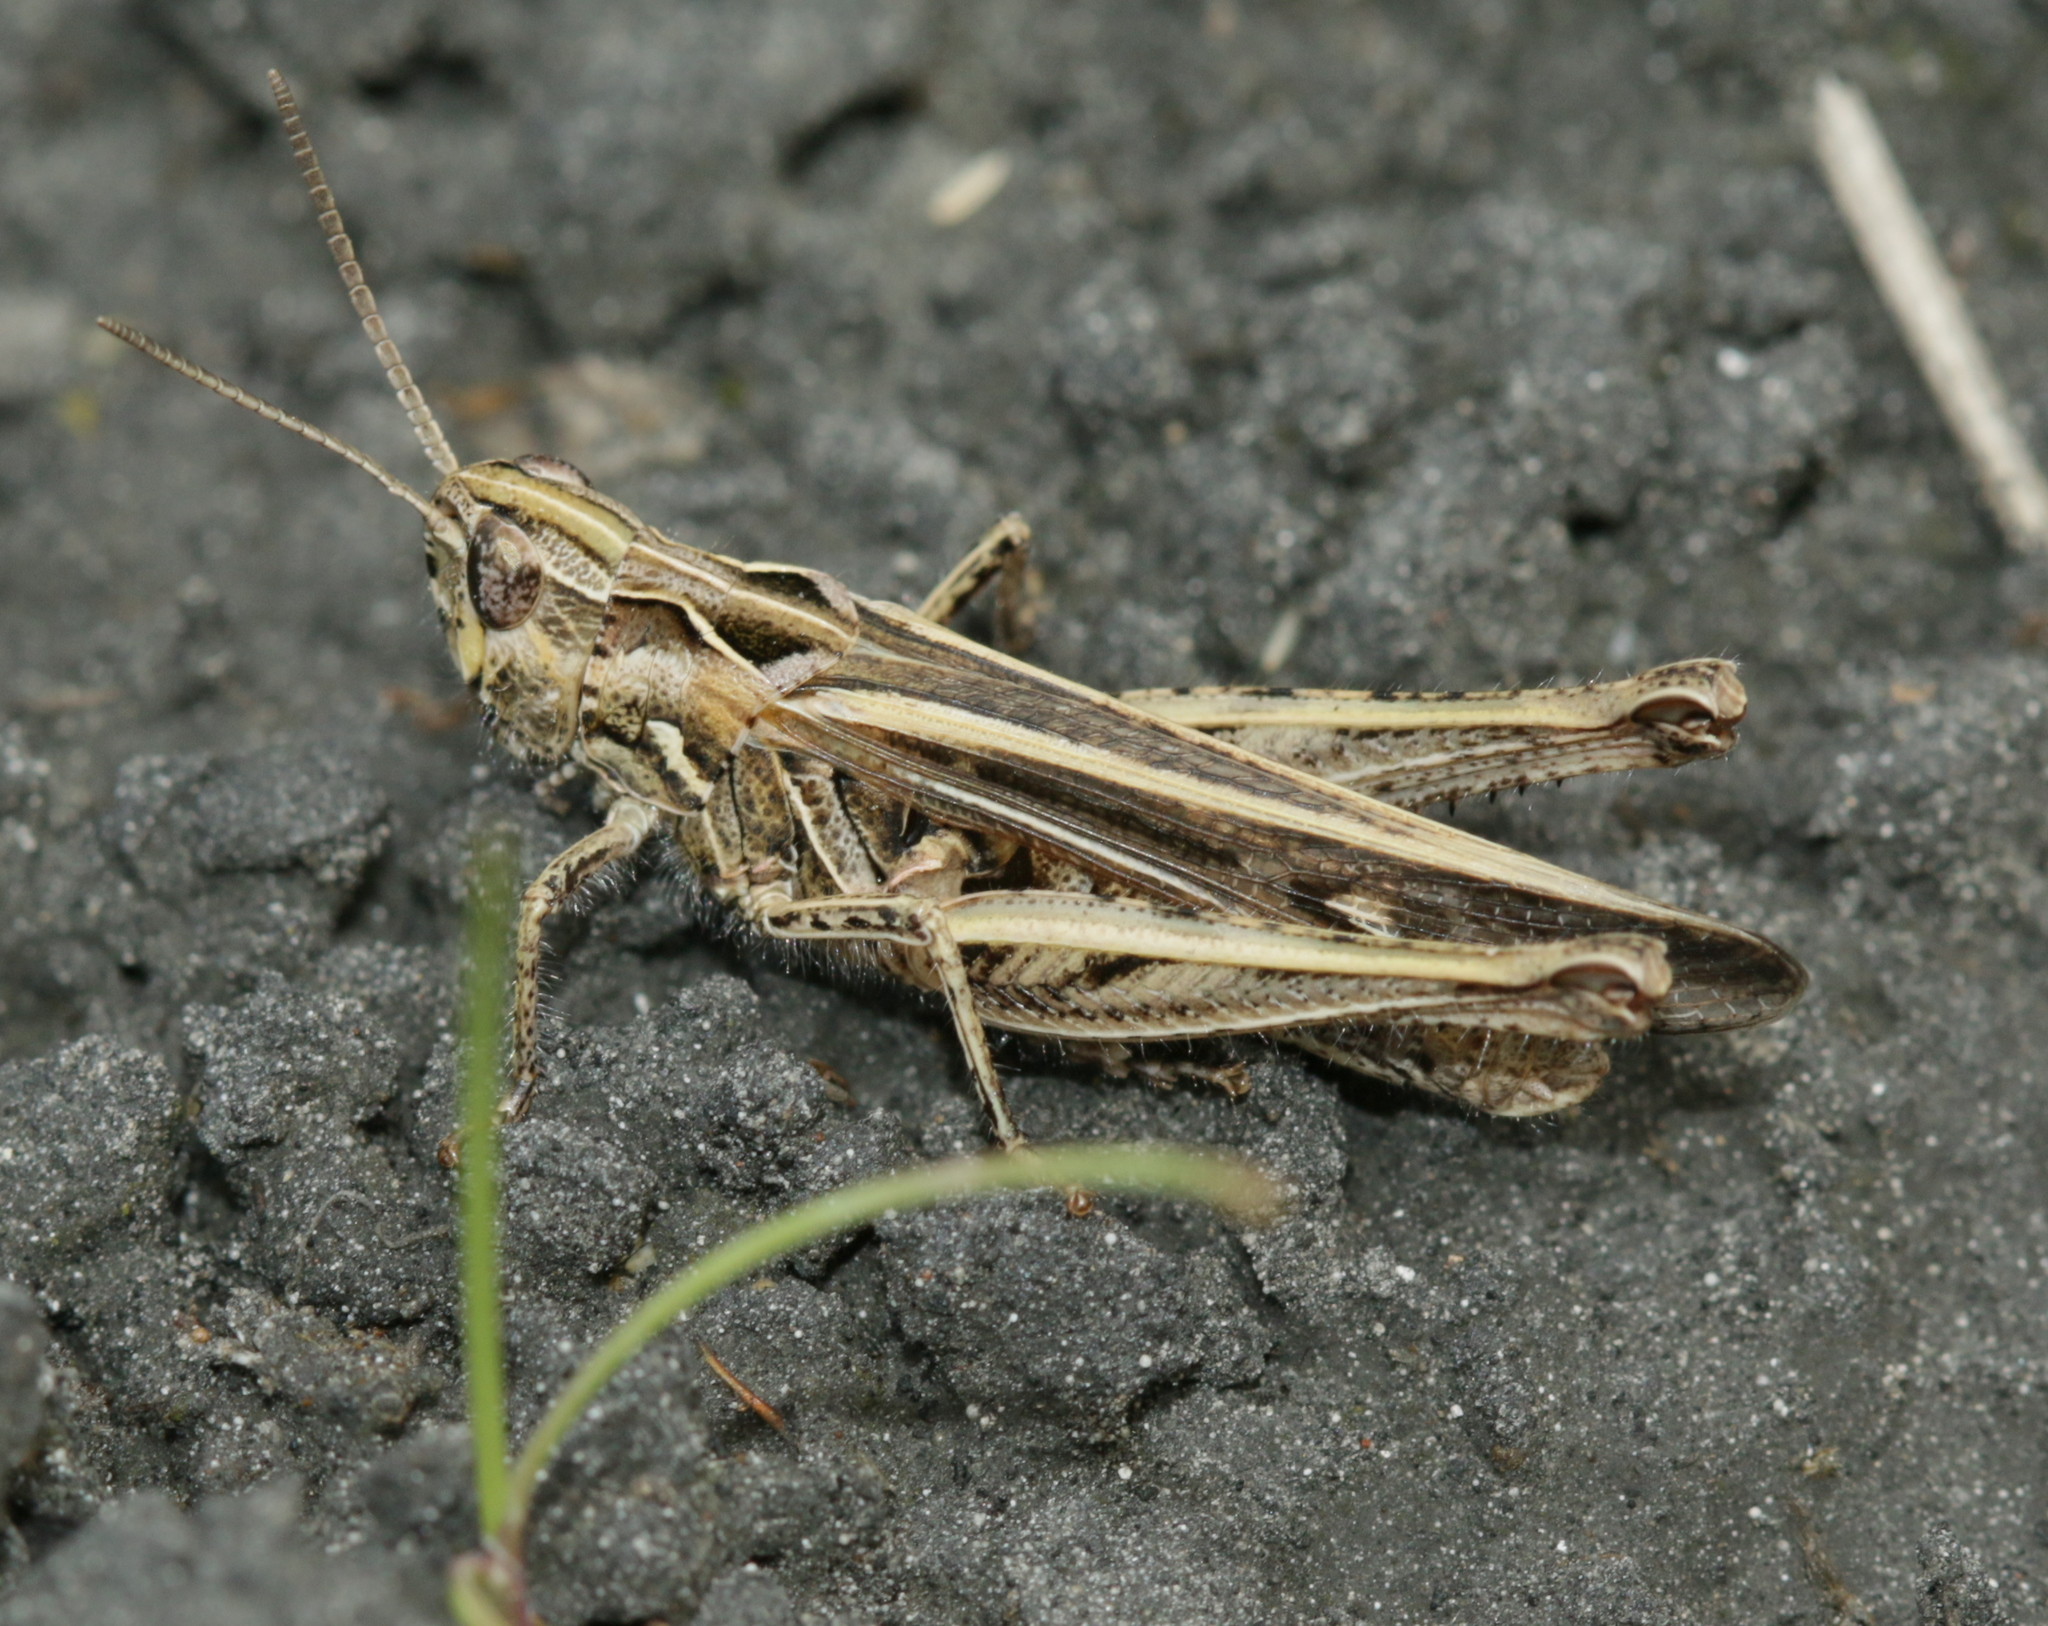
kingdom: Animalia
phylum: Arthropoda
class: Insecta
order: Orthoptera
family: Acrididae
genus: Chorthippus
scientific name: Chorthippus brunneus
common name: Field grasshopper
